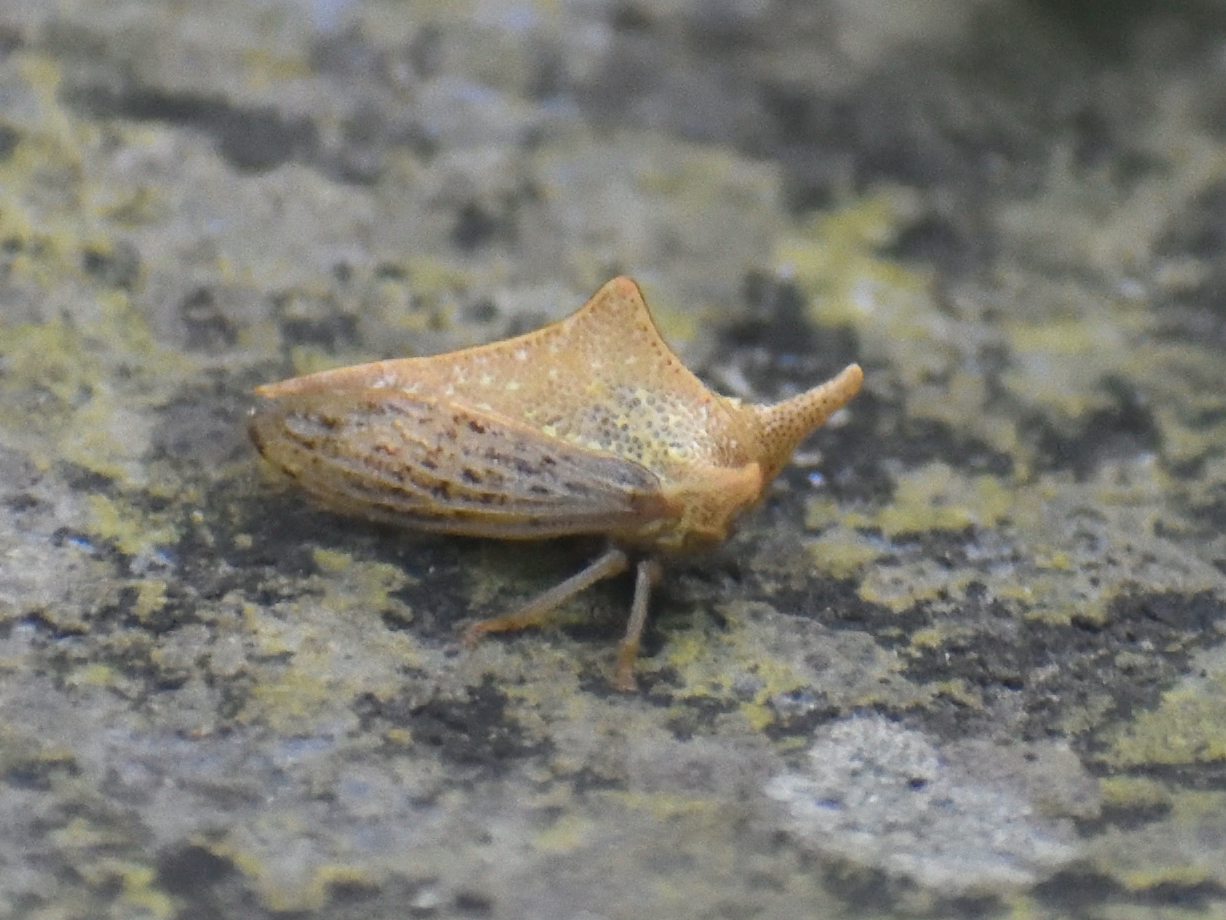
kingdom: Animalia
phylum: Arthropoda
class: Insecta
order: Hemiptera
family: Membracidae
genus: Alchisme
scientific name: Alchisme bos
